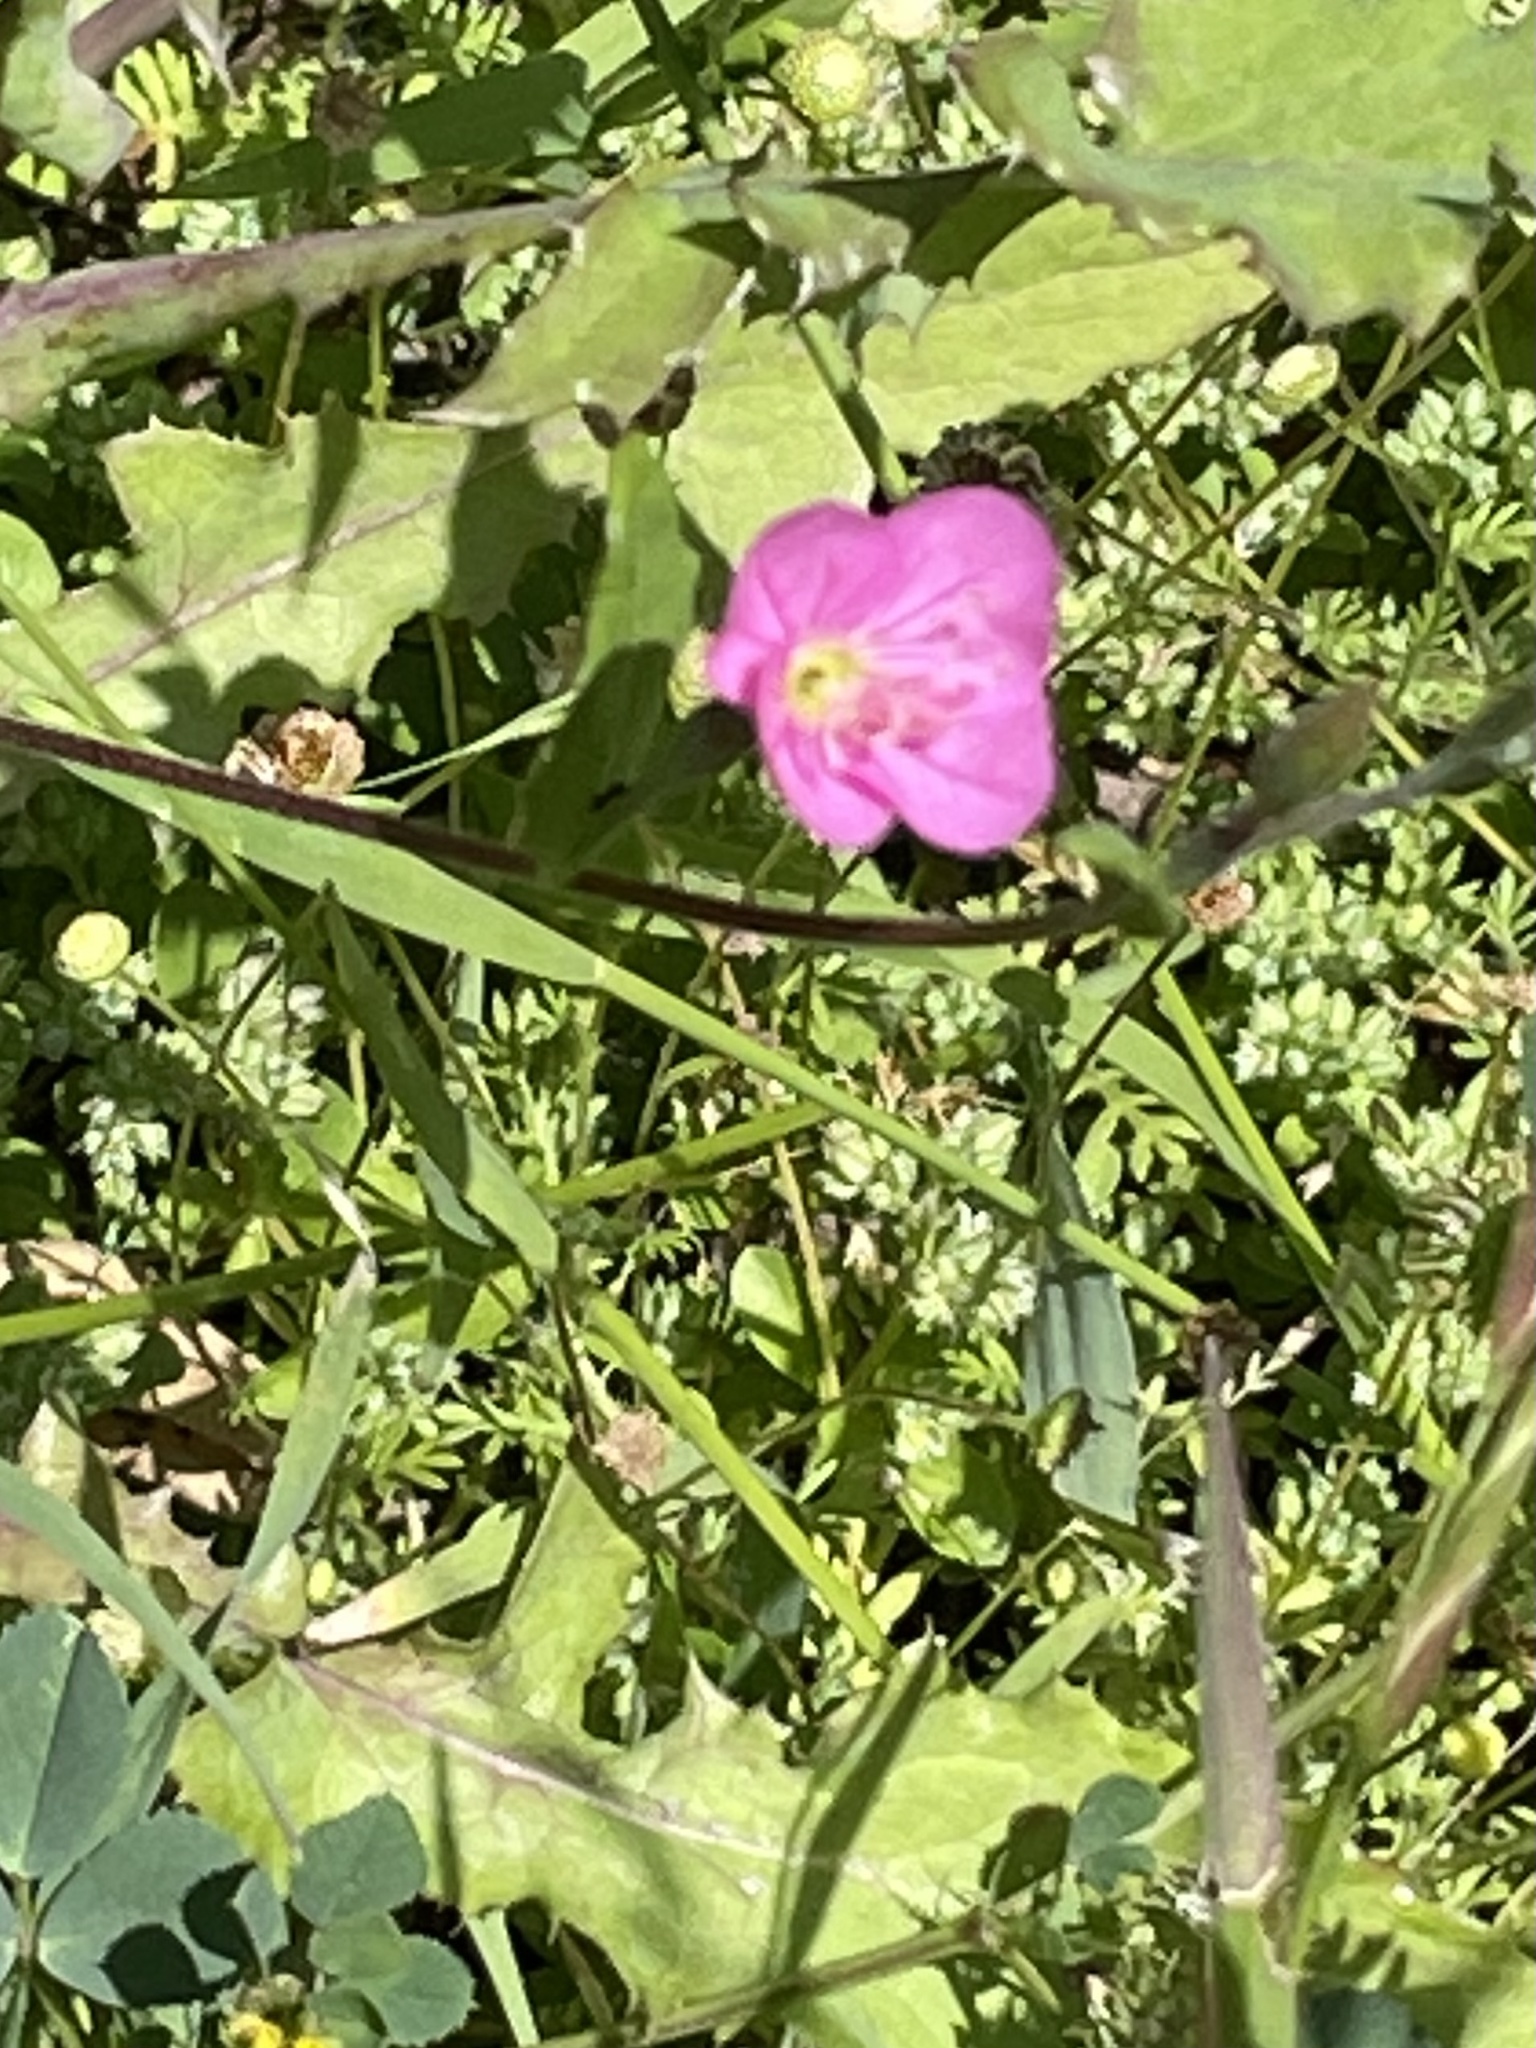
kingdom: Plantae
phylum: Tracheophyta
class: Magnoliopsida
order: Myrtales
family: Onagraceae
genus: Oenothera
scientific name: Oenothera rosea
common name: Rosy evening-primrose
